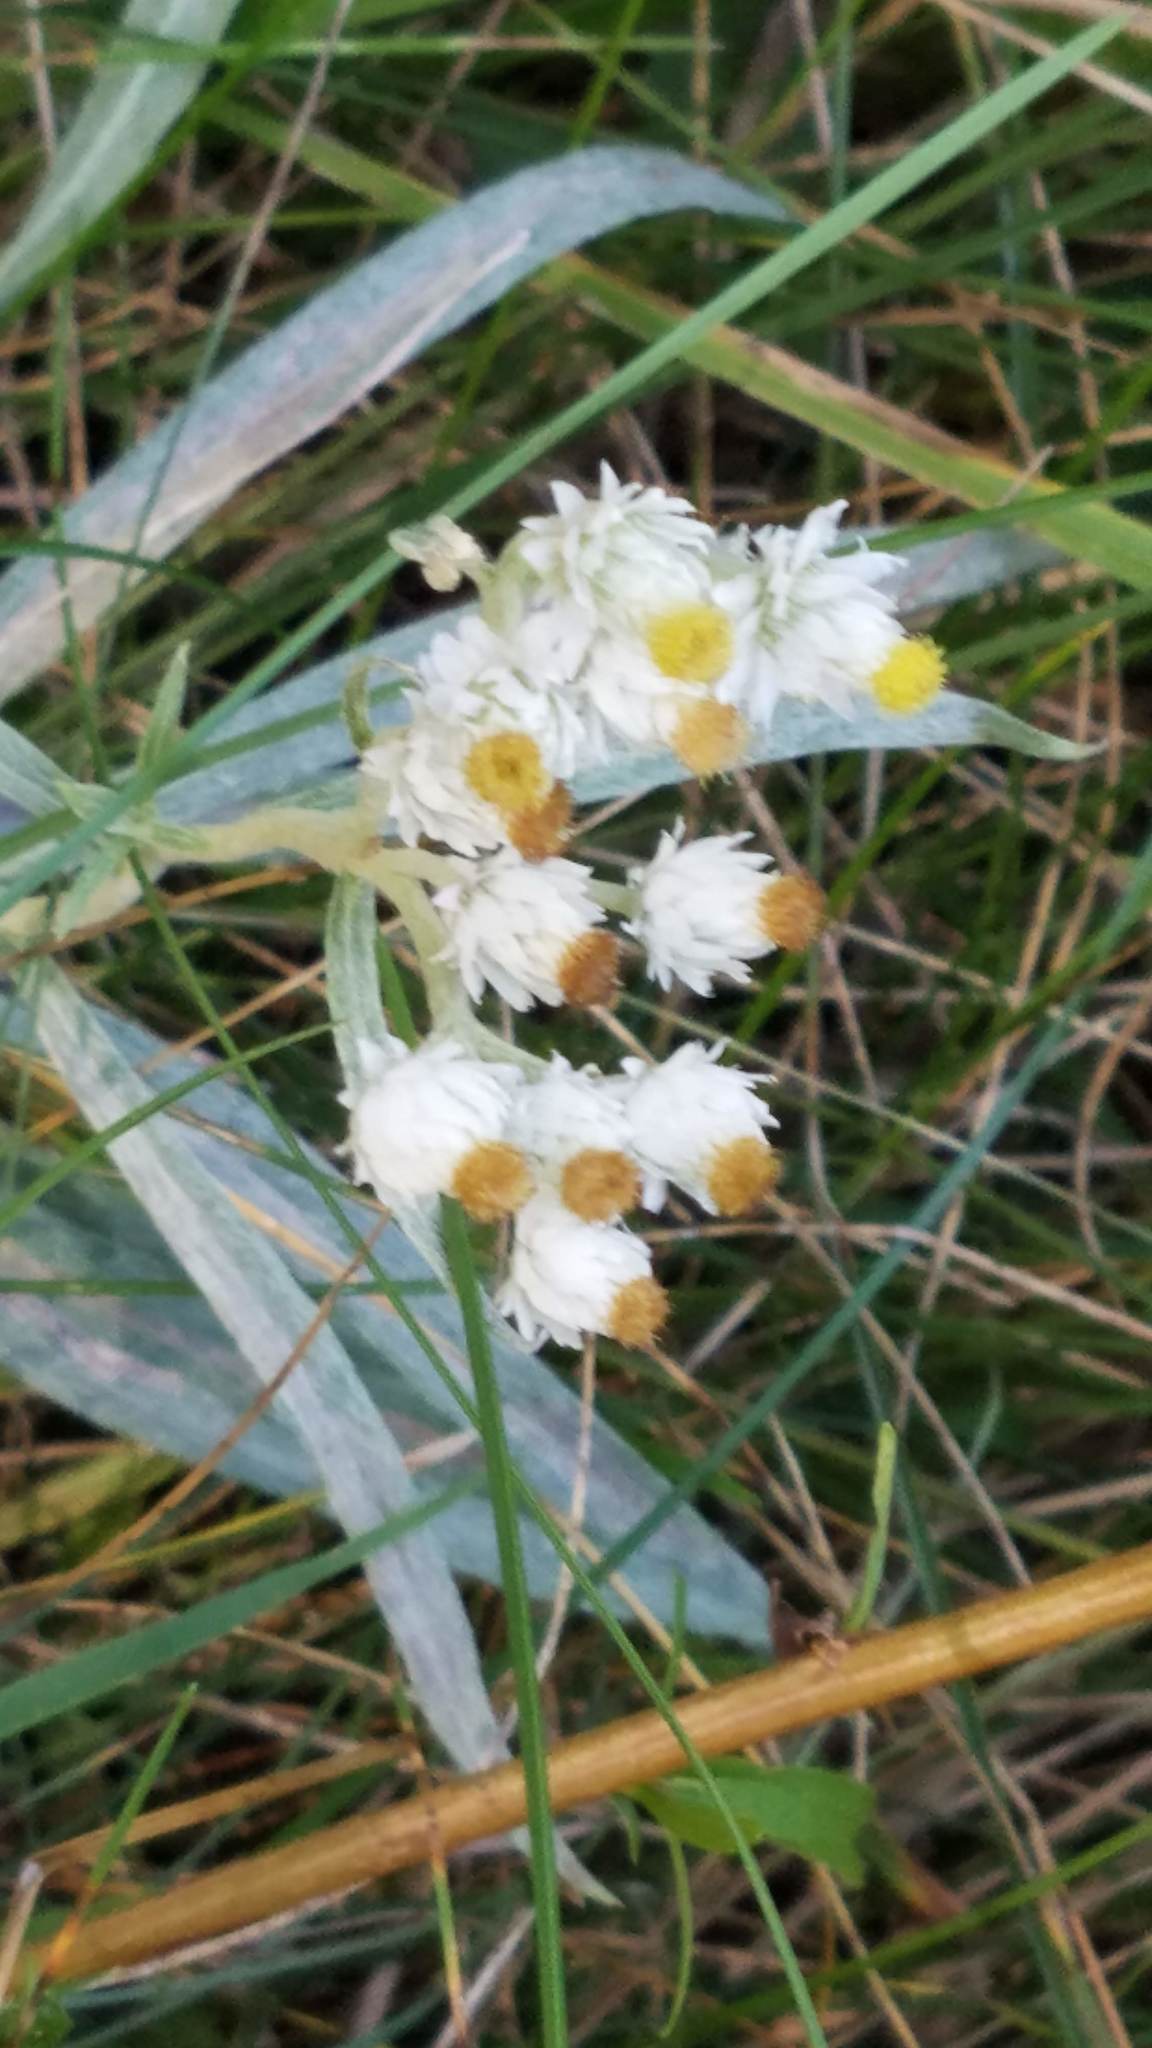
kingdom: Plantae
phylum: Tracheophyta
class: Magnoliopsida
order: Asterales
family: Asteraceae
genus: Anaphalis
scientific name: Anaphalis margaritacea
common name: Pearly everlasting
